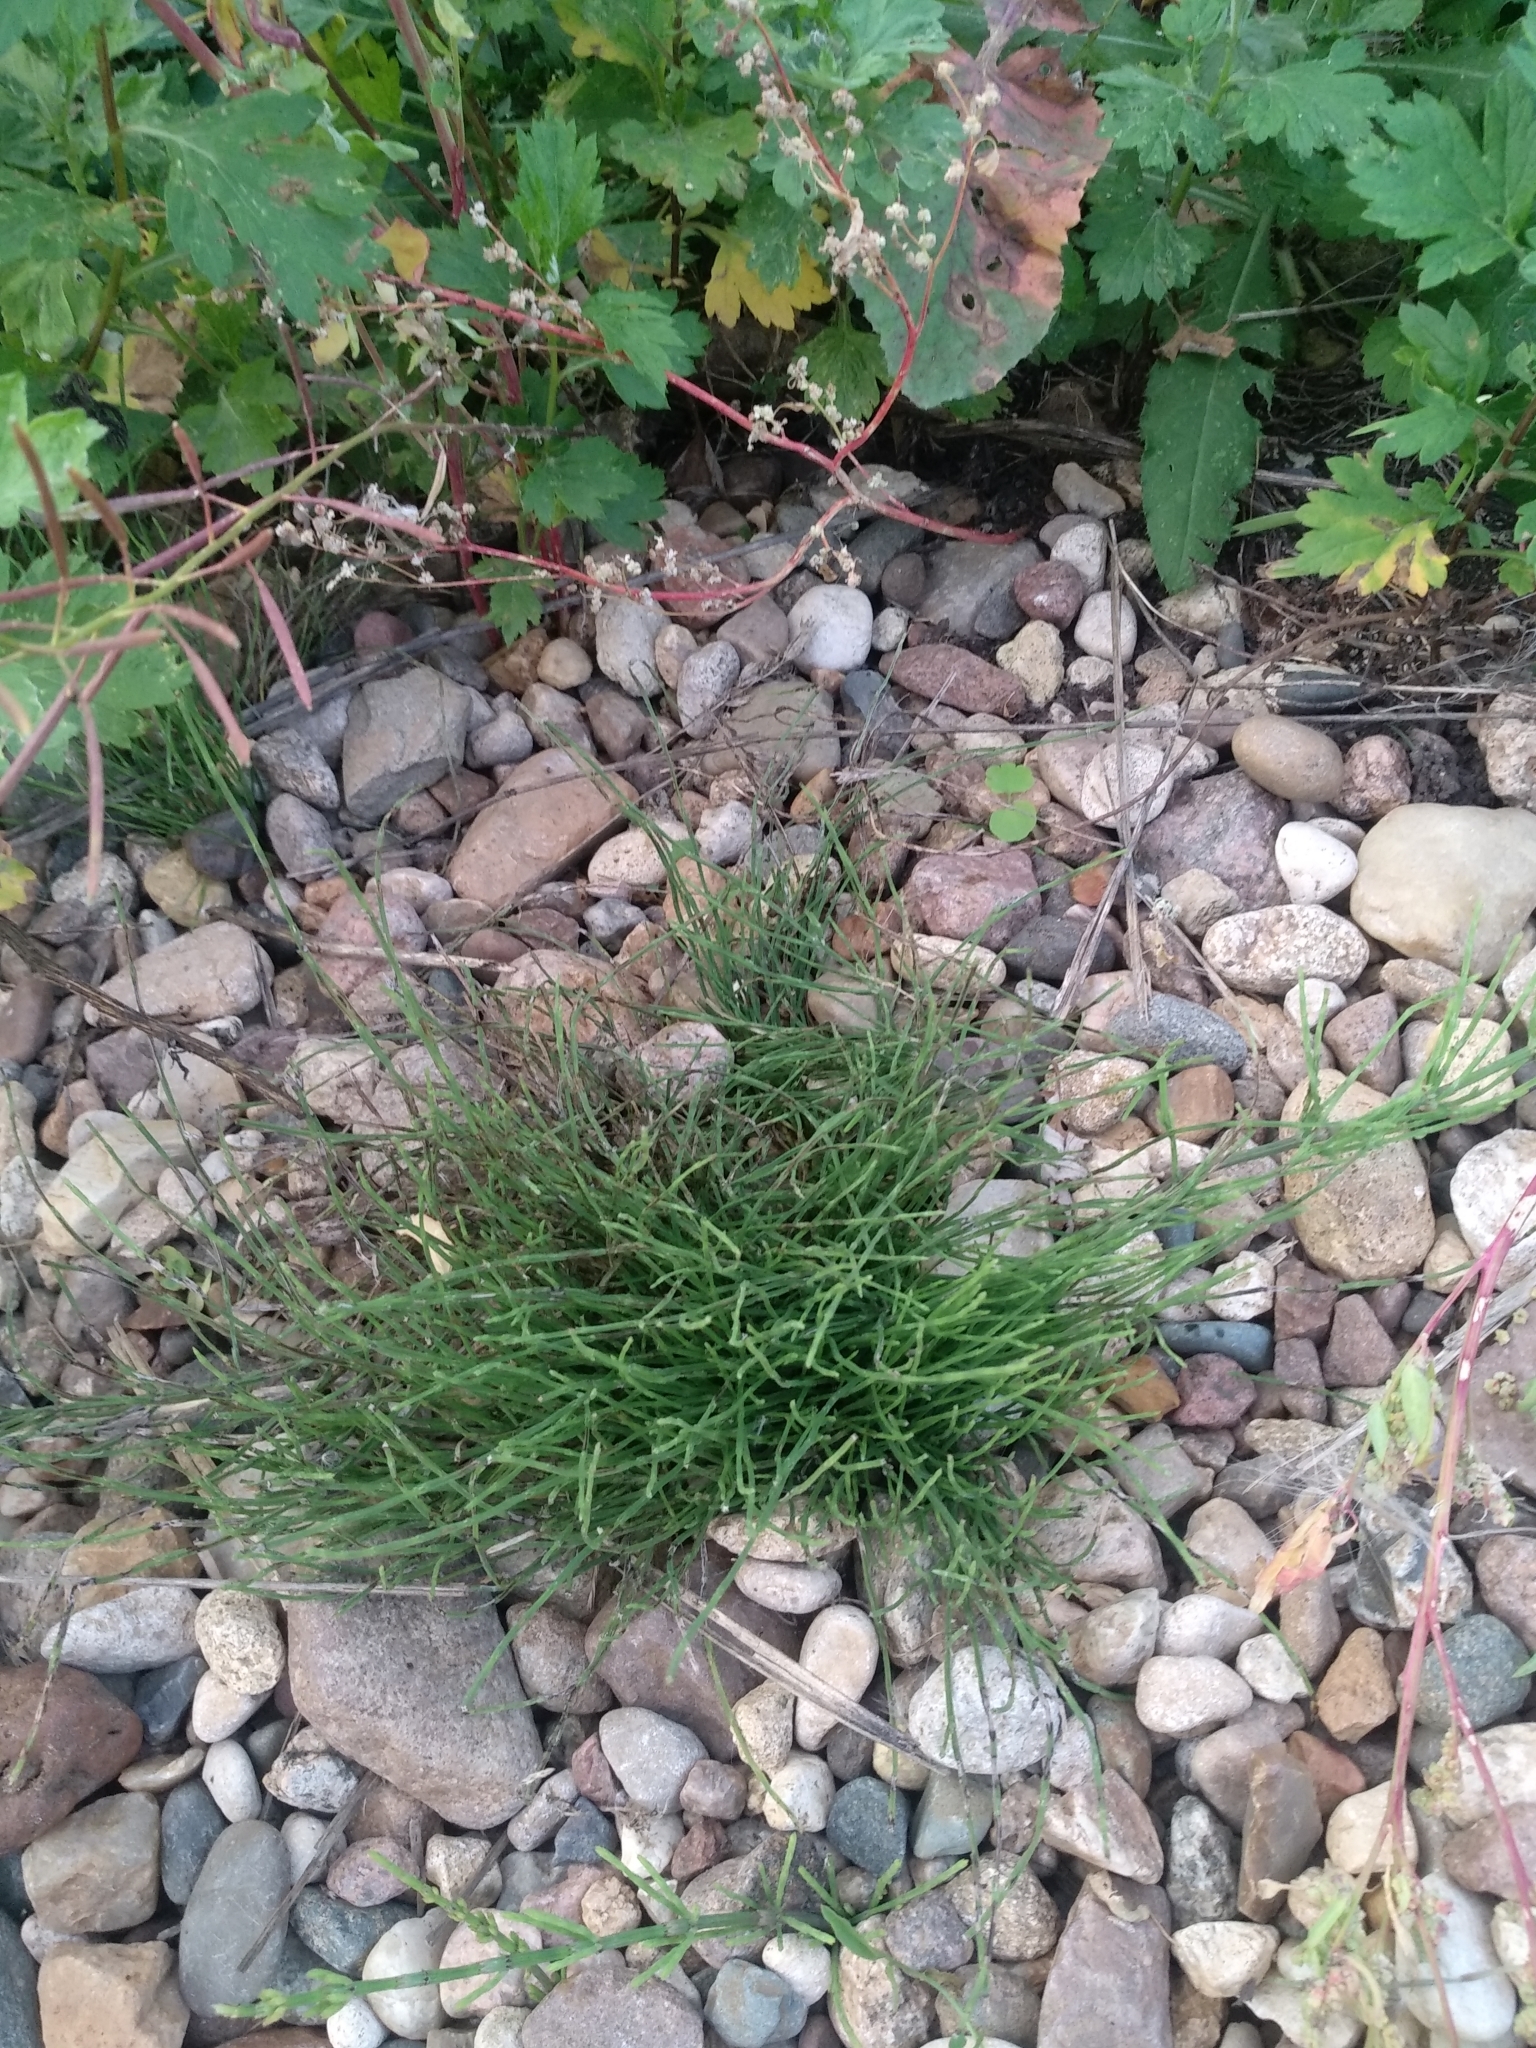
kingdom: Plantae
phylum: Tracheophyta
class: Polypodiopsida
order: Equisetales
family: Equisetaceae
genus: Equisetum
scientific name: Equisetum arvense
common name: Field horsetail
